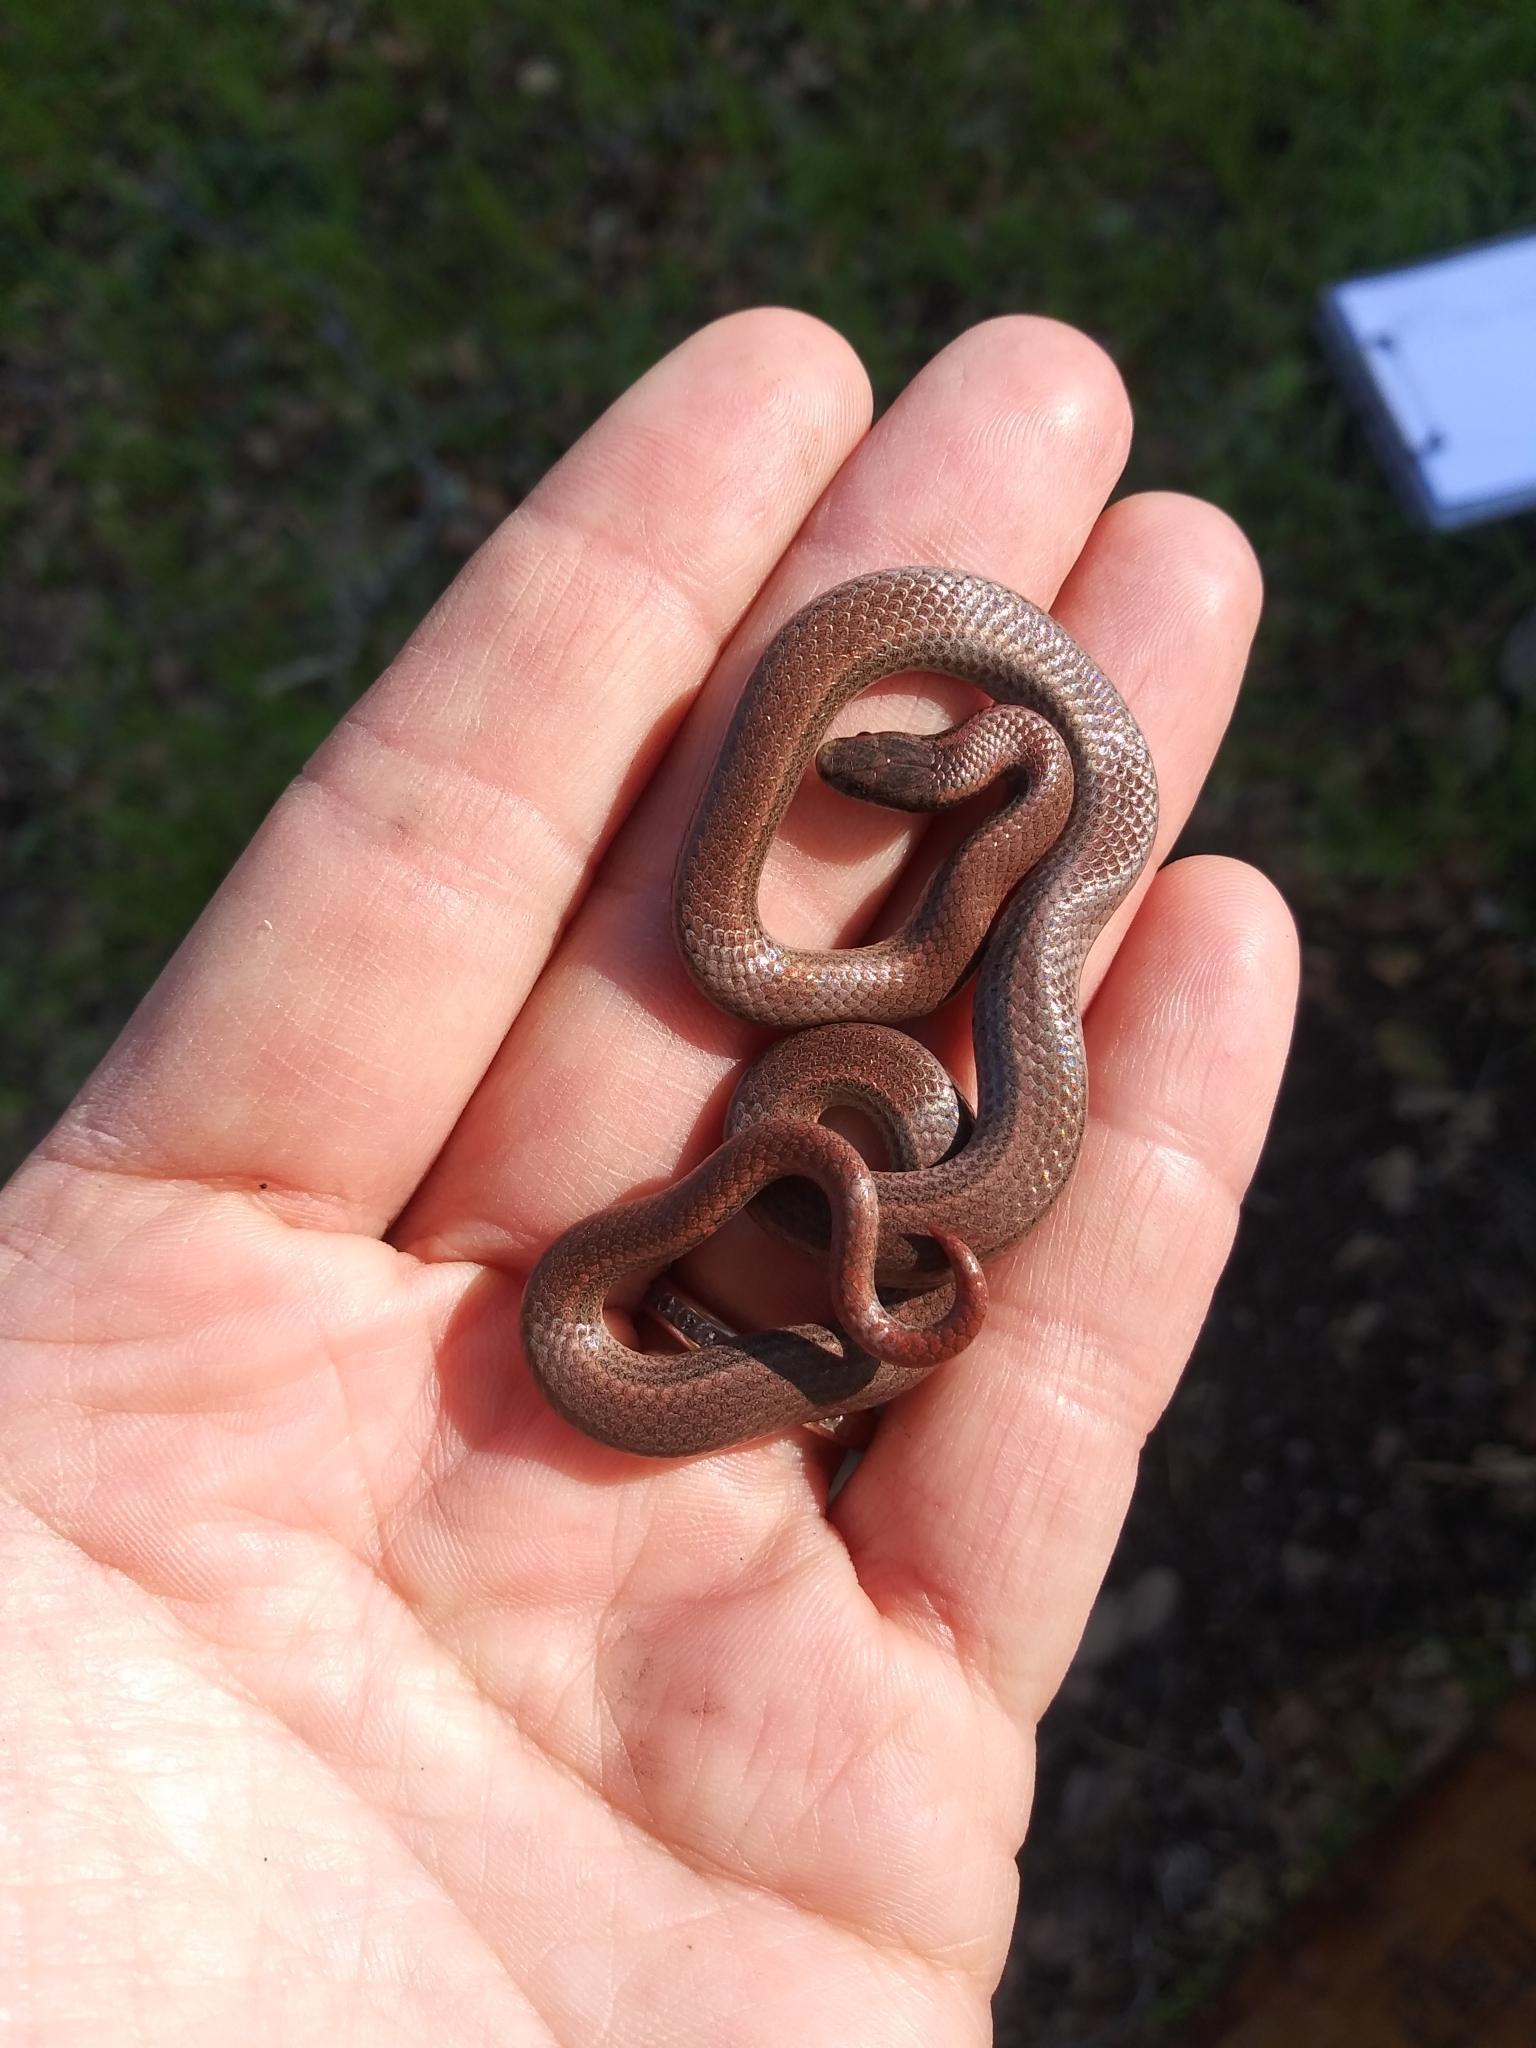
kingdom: Animalia
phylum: Chordata
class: Squamata
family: Colubridae
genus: Contia
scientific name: Contia tenuis
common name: Sharptail snake
